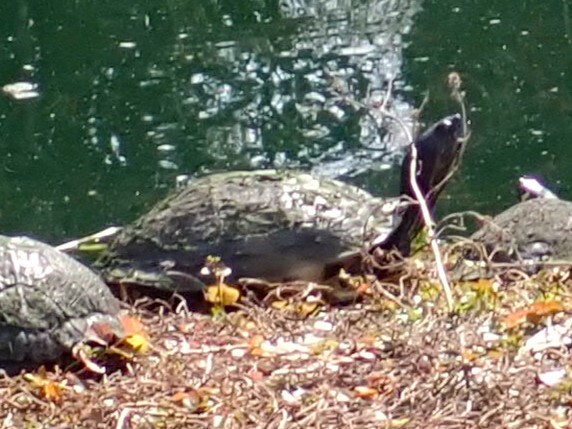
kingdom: Animalia
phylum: Chordata
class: Testudines
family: Emydidae
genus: Trachemys
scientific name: Trachemys scripta
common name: Slider
